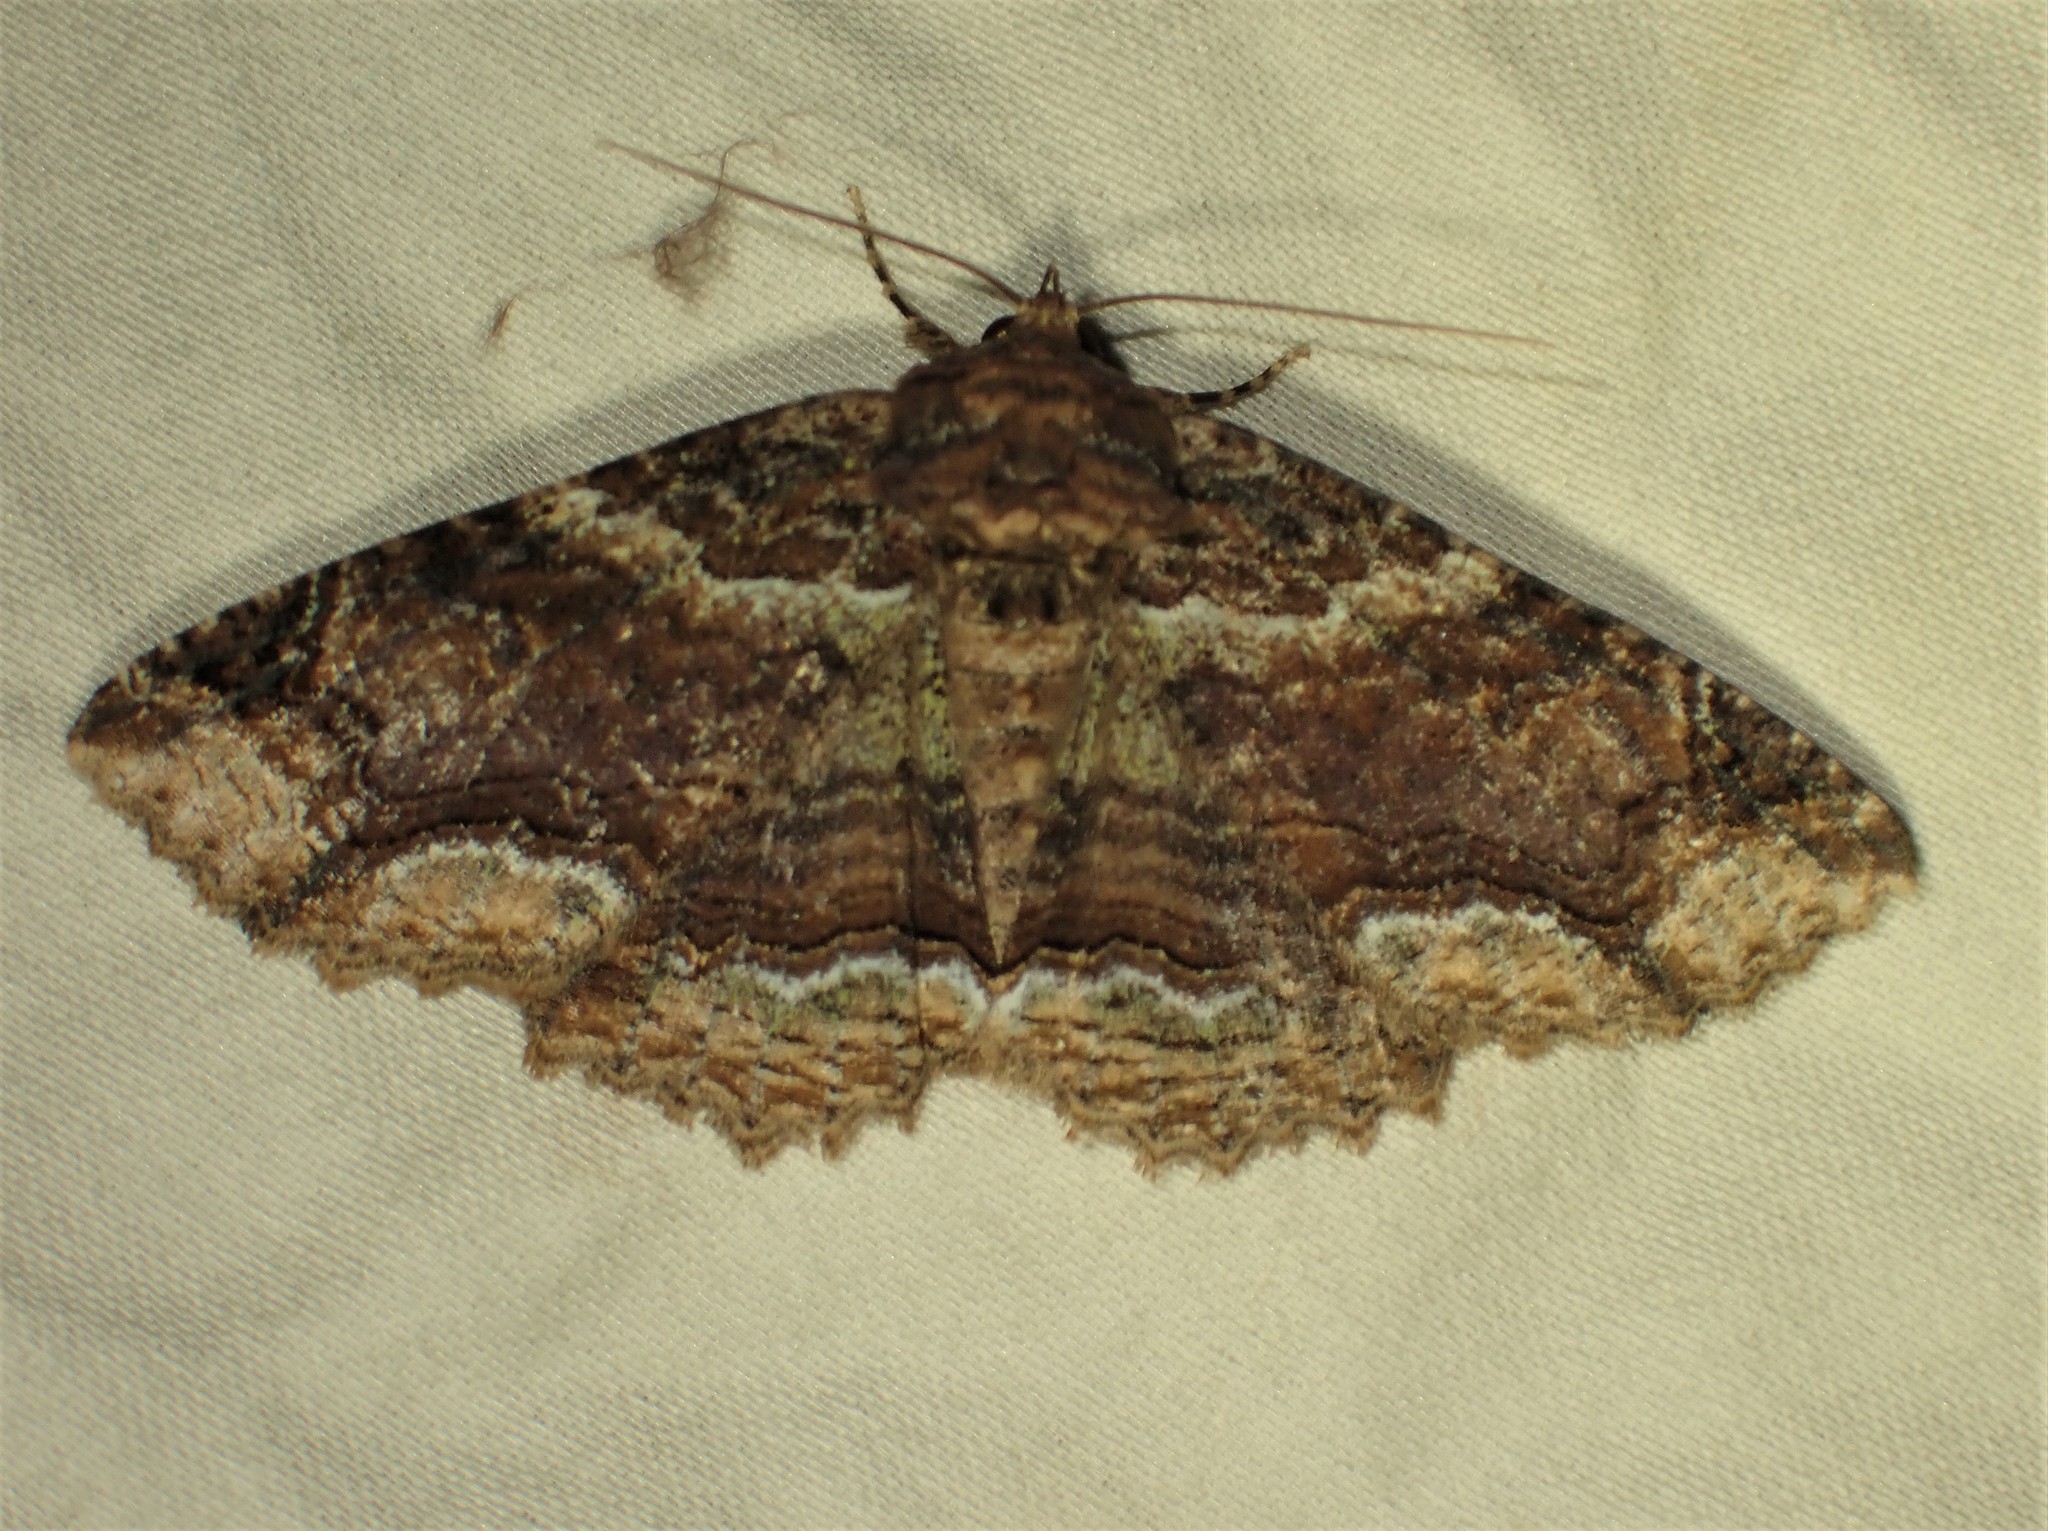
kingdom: Animalia
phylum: Arthropoda
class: Insecta
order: Lepidoptera
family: Erebidae
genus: Zale
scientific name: Zale minerea
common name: Colorful zale moth
